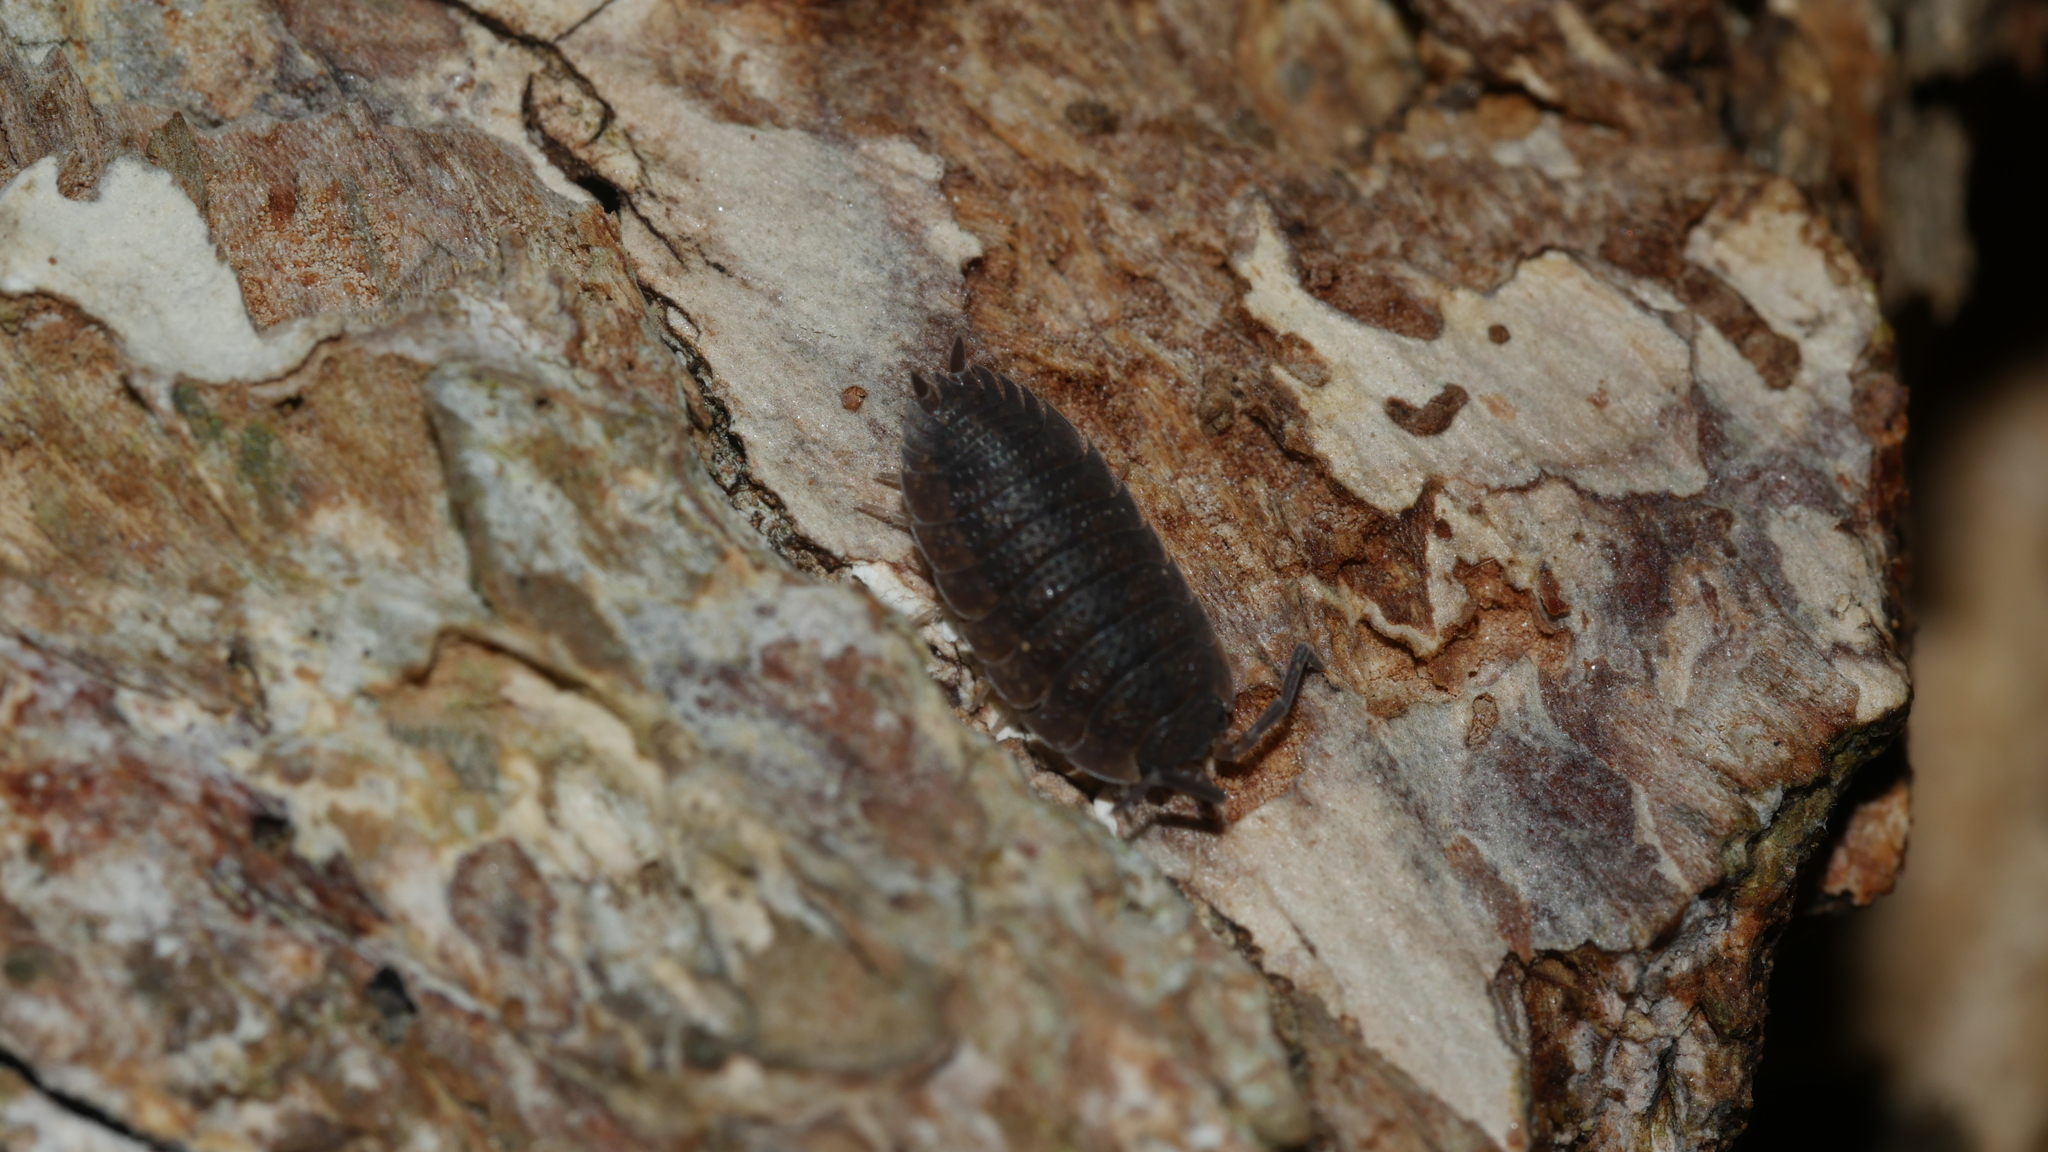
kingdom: Animalia
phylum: Arthropoda
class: Malacostraca
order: Isopoda
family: Porcellionidae
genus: Porcellio
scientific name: Porcellio scaber
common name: Common rough woodlouse
